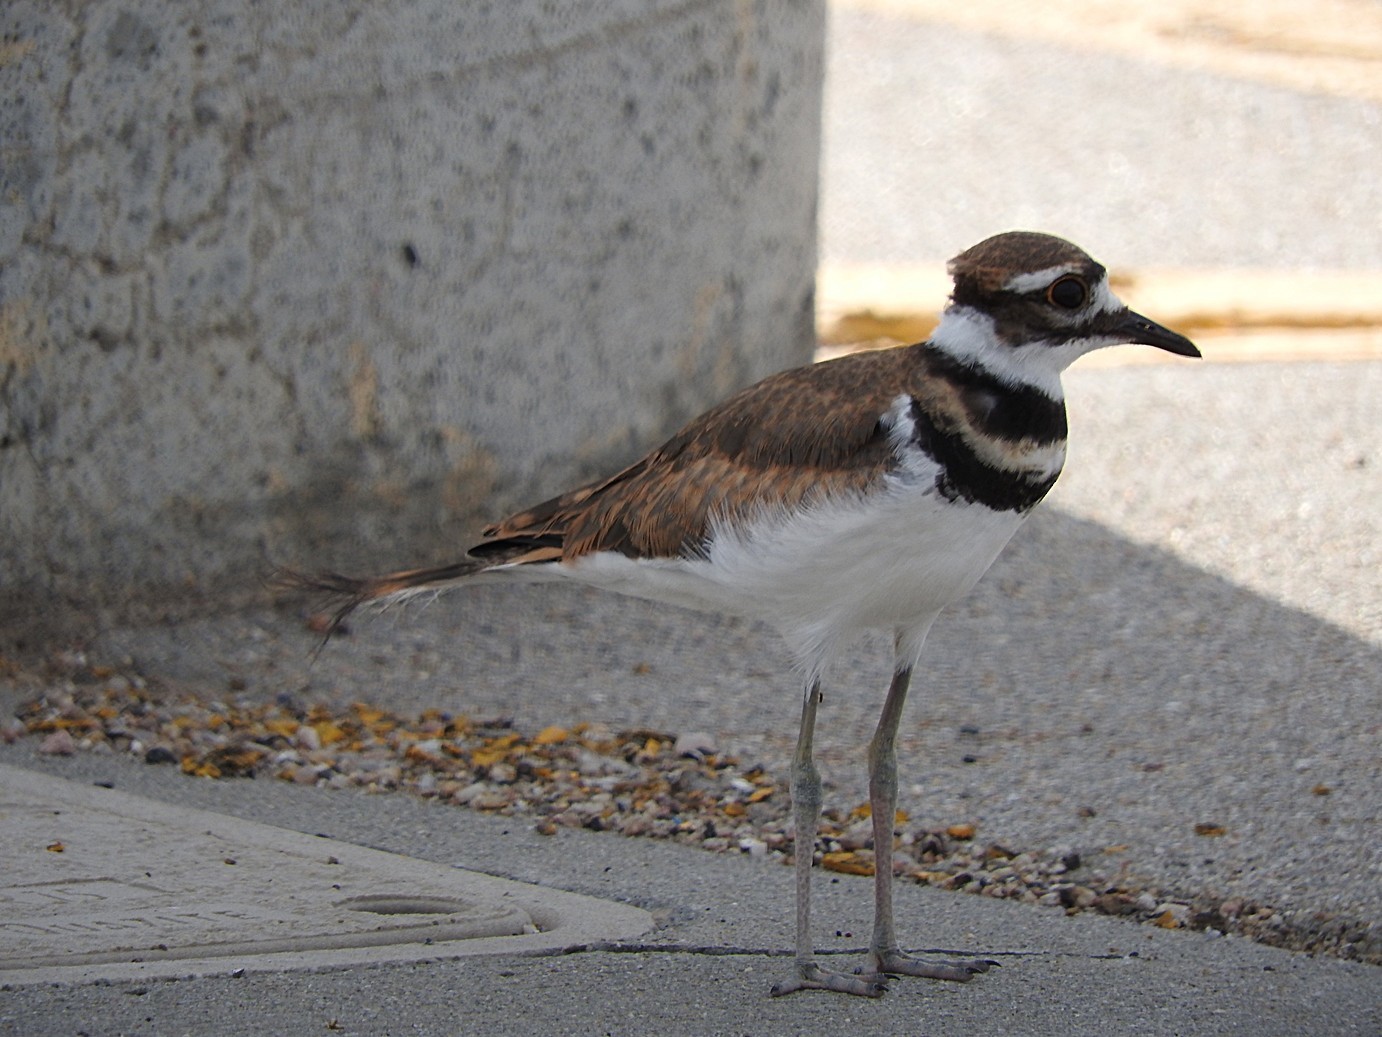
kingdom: Animalia
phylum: Chordata
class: Aves
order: Charadriiformes
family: Charadriidae
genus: Charadrius
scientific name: Charadrius vociferus
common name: Killdeer
